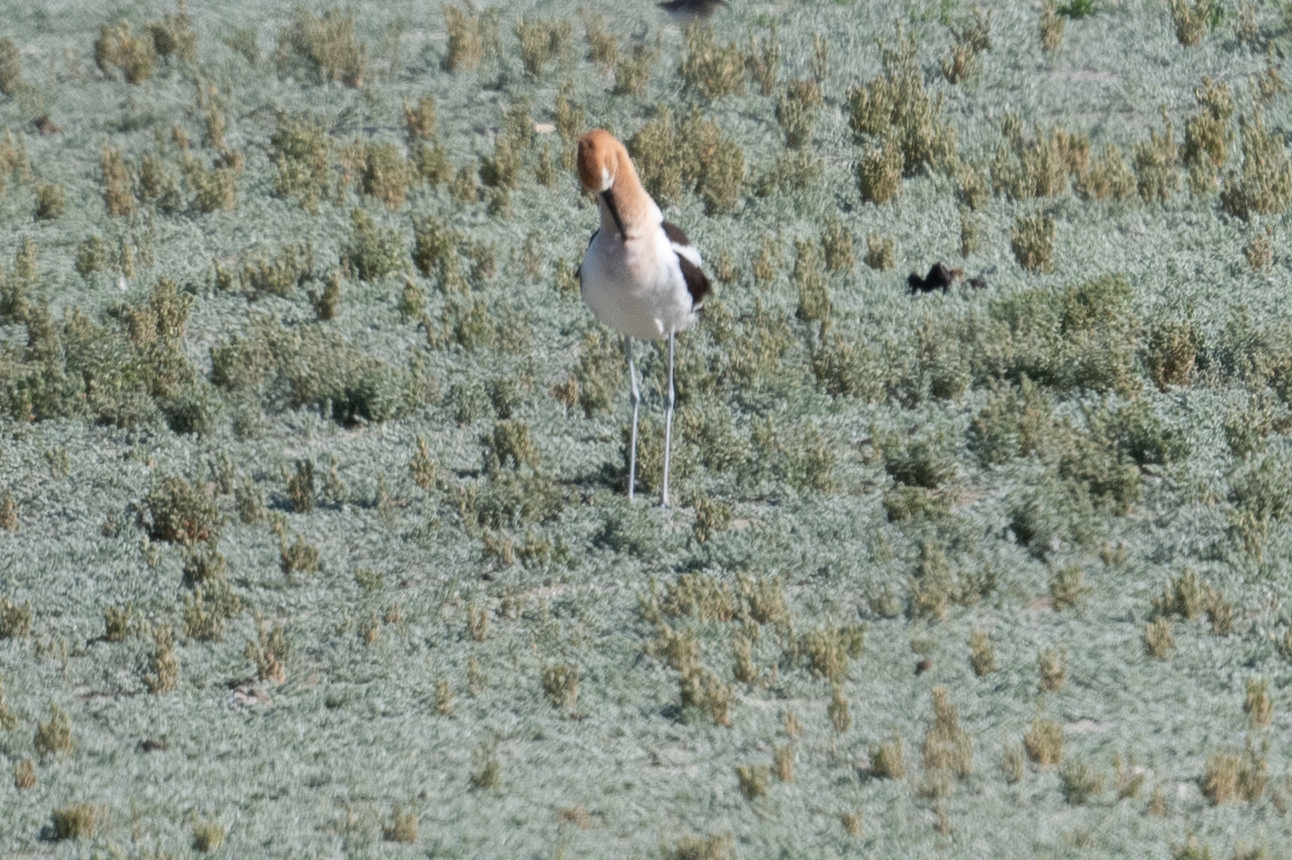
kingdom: Animalia
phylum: Chordata
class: Aves
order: Charadriiformes
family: Recurvirostridae
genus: Recurvirostra
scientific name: Recurvirostra americana
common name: American avocet
